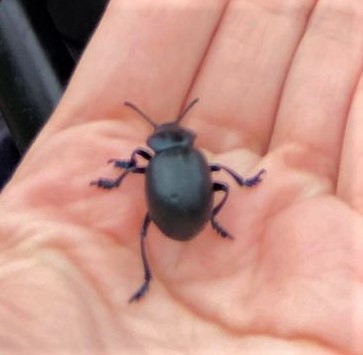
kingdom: Animalia
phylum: Arthropoda
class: Insecta
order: Coleoptera
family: Chrysomelidae
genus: Timarcha
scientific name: Timarcha tenebricosa
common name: Bloody-nosed beetle
